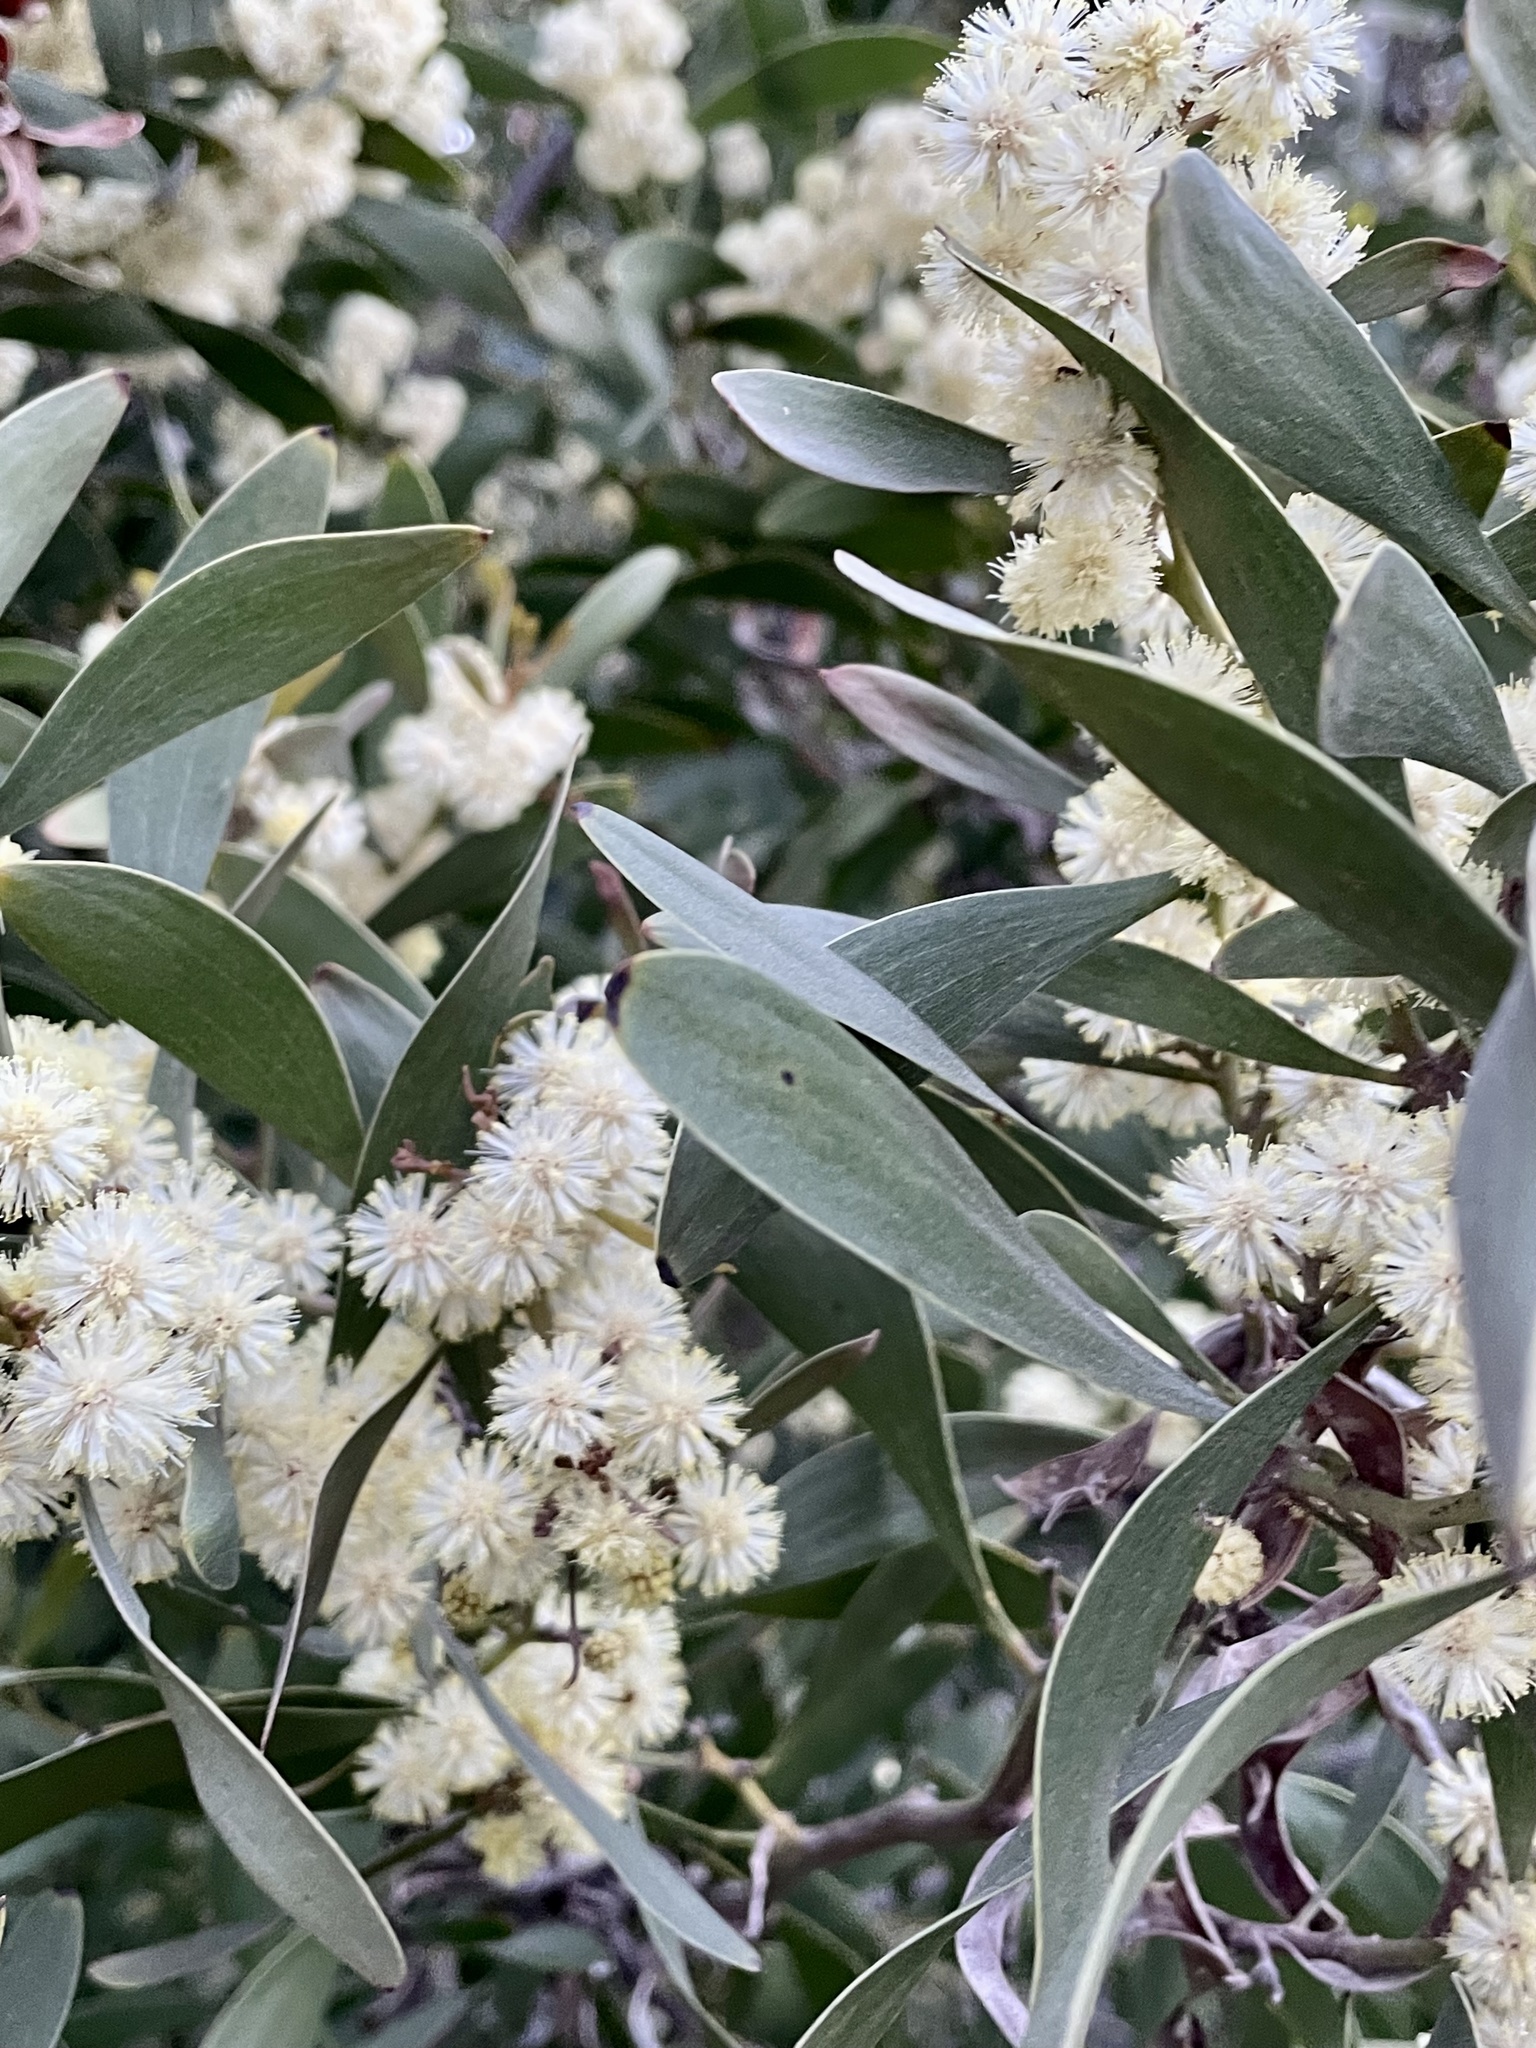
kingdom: Plantae
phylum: Tracheophyta
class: Magnoliopsida
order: Fabales
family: Fabaceae
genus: Acacia
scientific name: Acacia melanoxylon
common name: Blackwood
